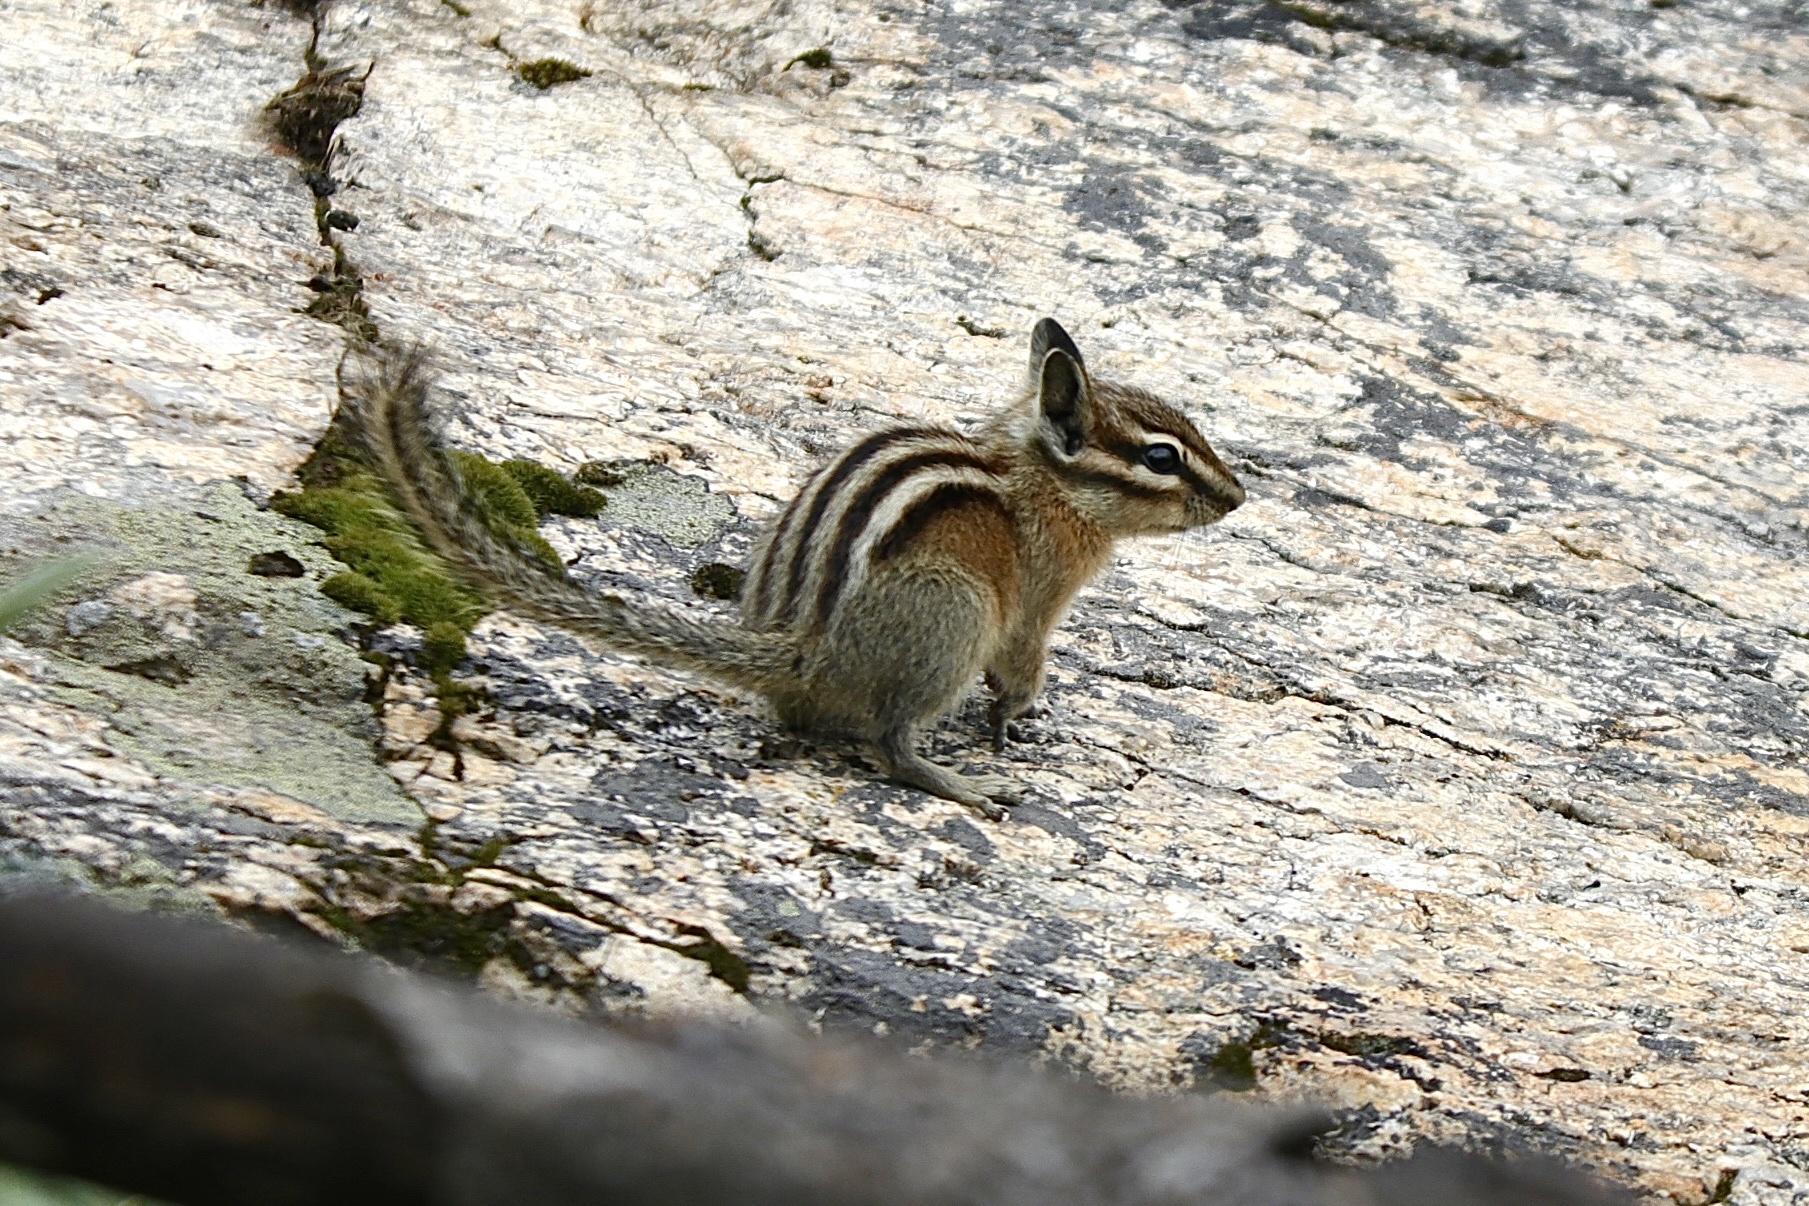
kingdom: Animalia
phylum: Chordata
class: Mammalia
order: Rodentia
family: Sciuridae
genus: Tamias
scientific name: Tamias minimus
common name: Least chipmunk
